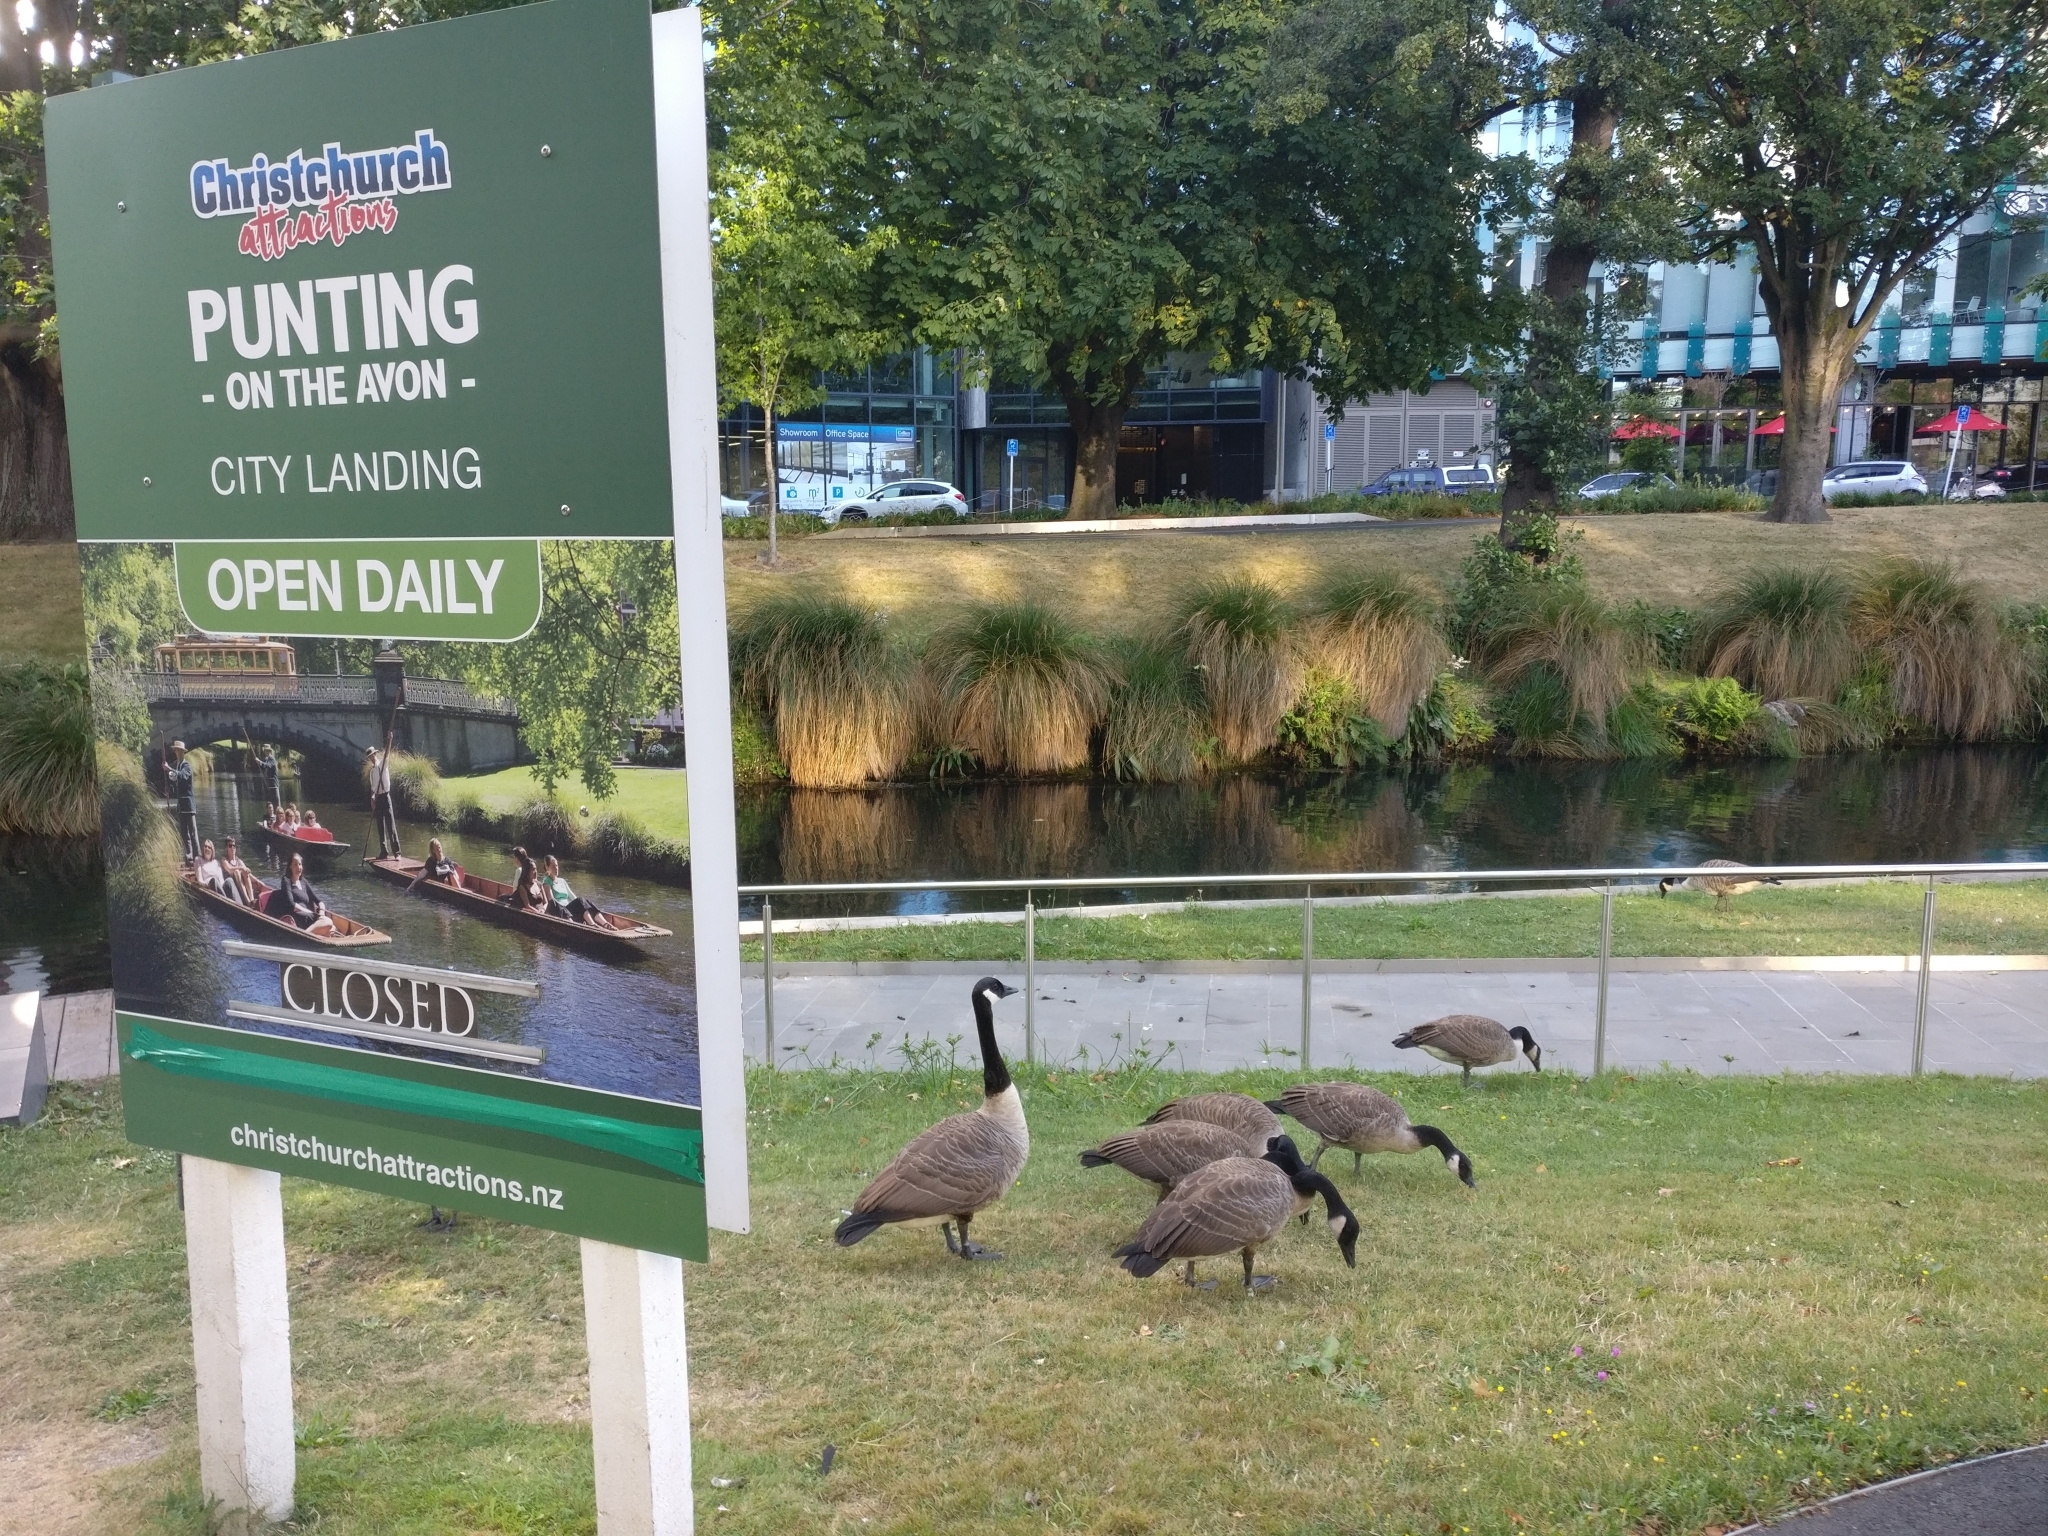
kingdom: Animalia
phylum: Chordata
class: Aves
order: Anseriformes
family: Anatidae
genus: Branta
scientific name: Branta canadensis
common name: Canada goose
